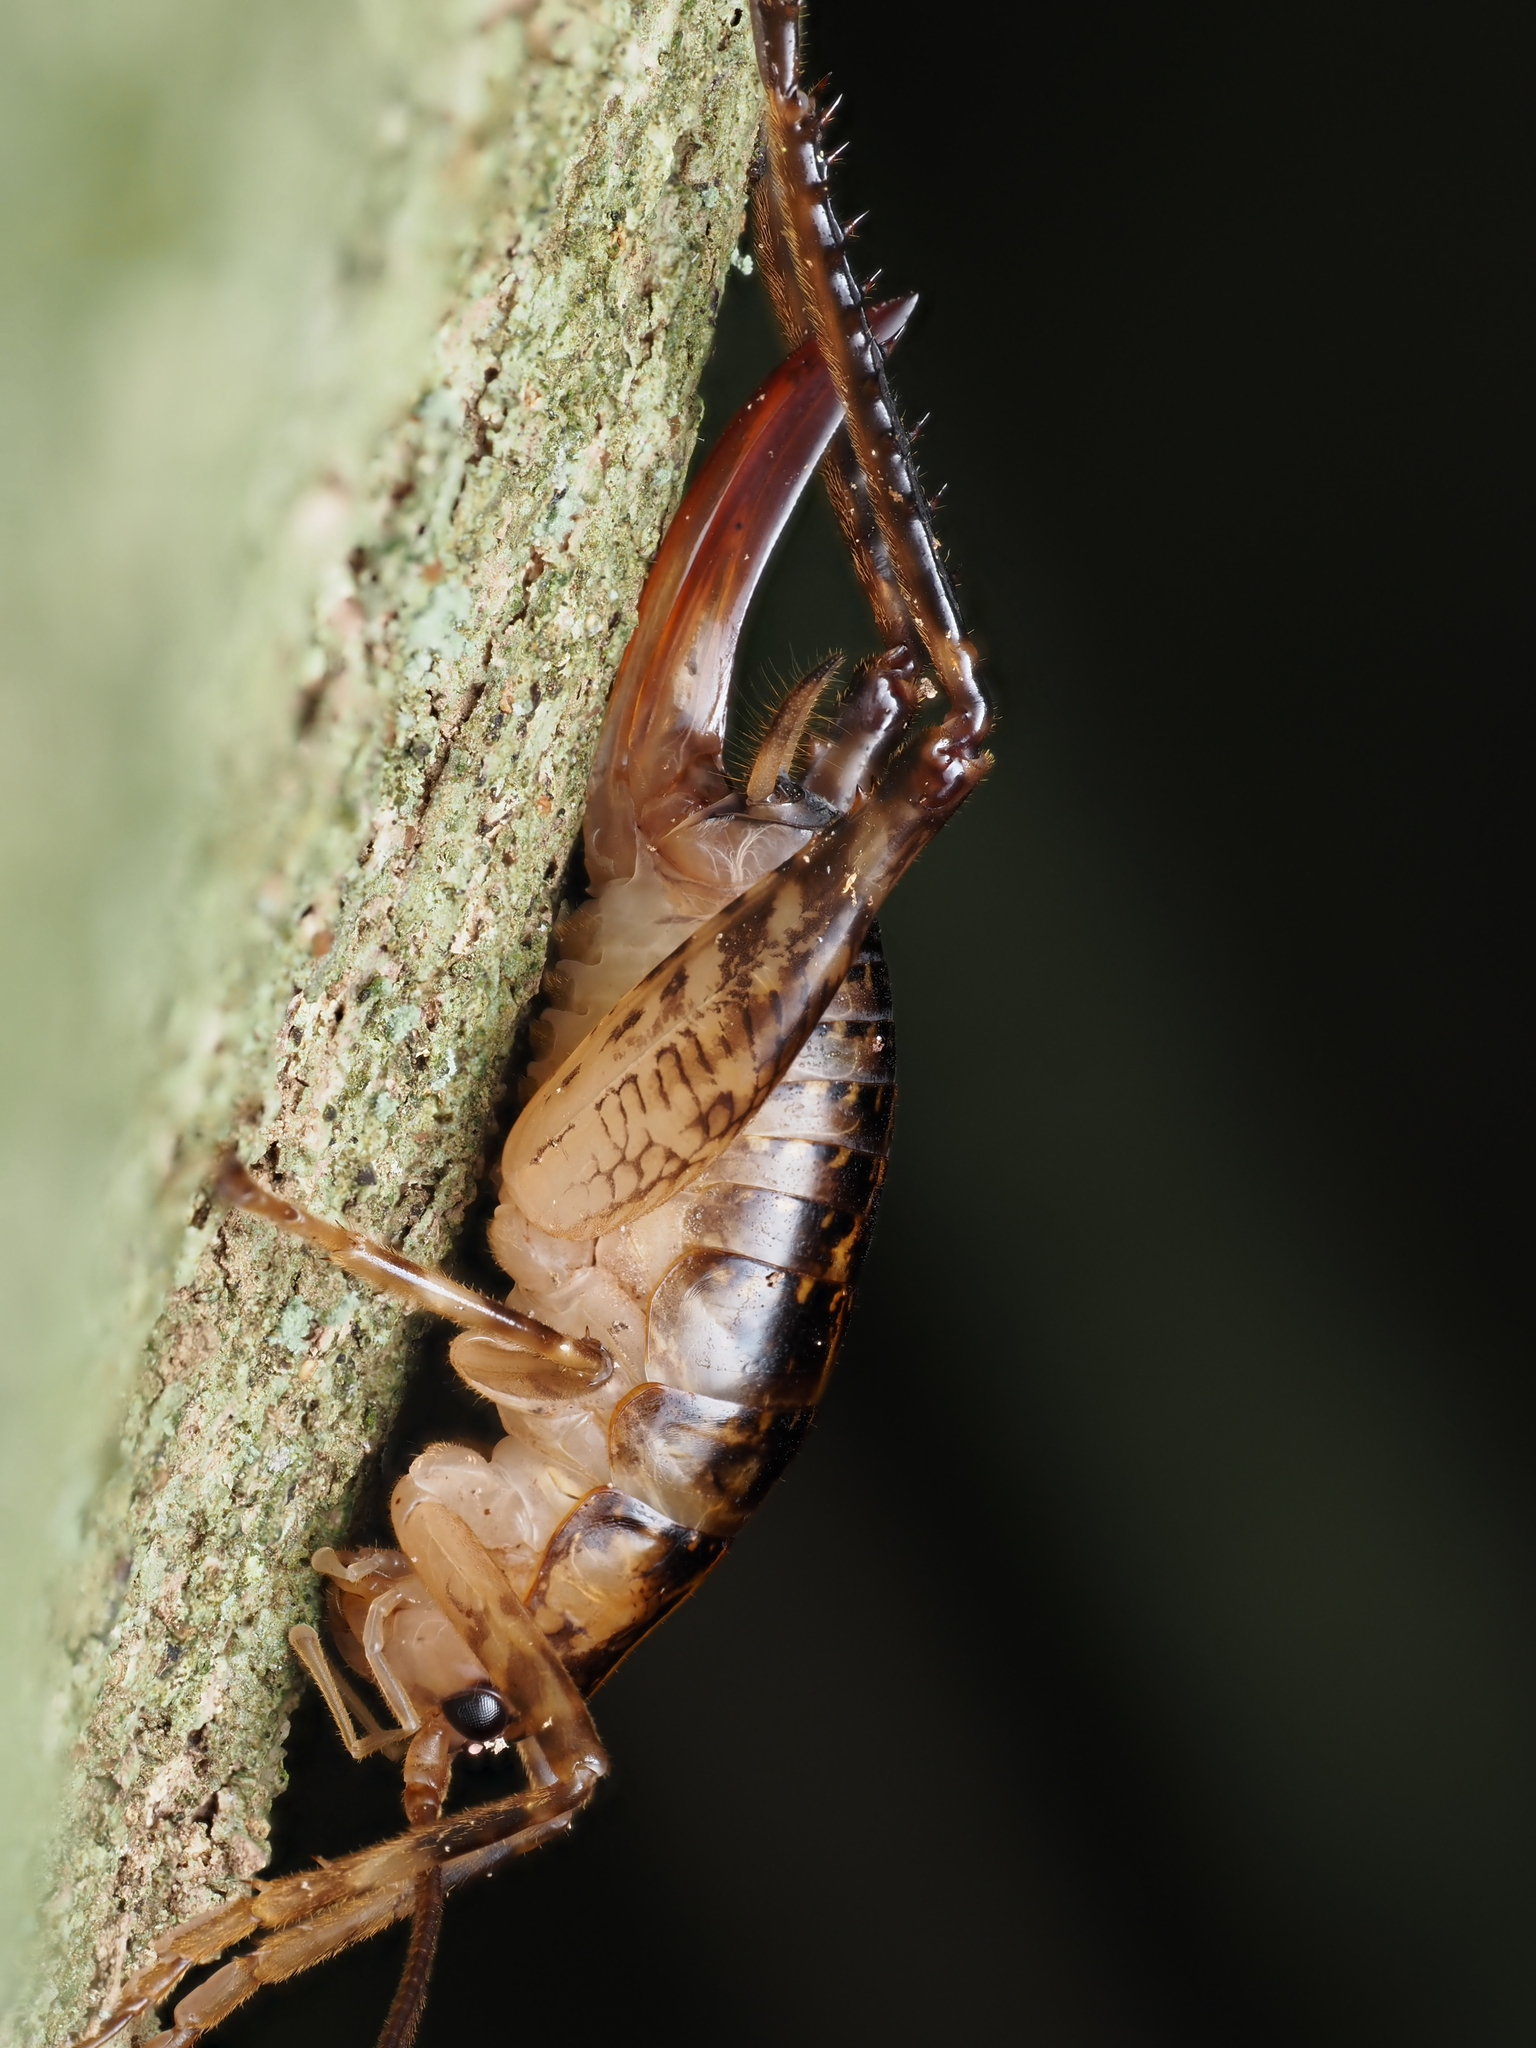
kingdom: Animalia
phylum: Arthropoda
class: Insecta
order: Orthoptera
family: Rhaphidophoridae
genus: Talitropsis
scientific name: Talitropsis sedilloti
